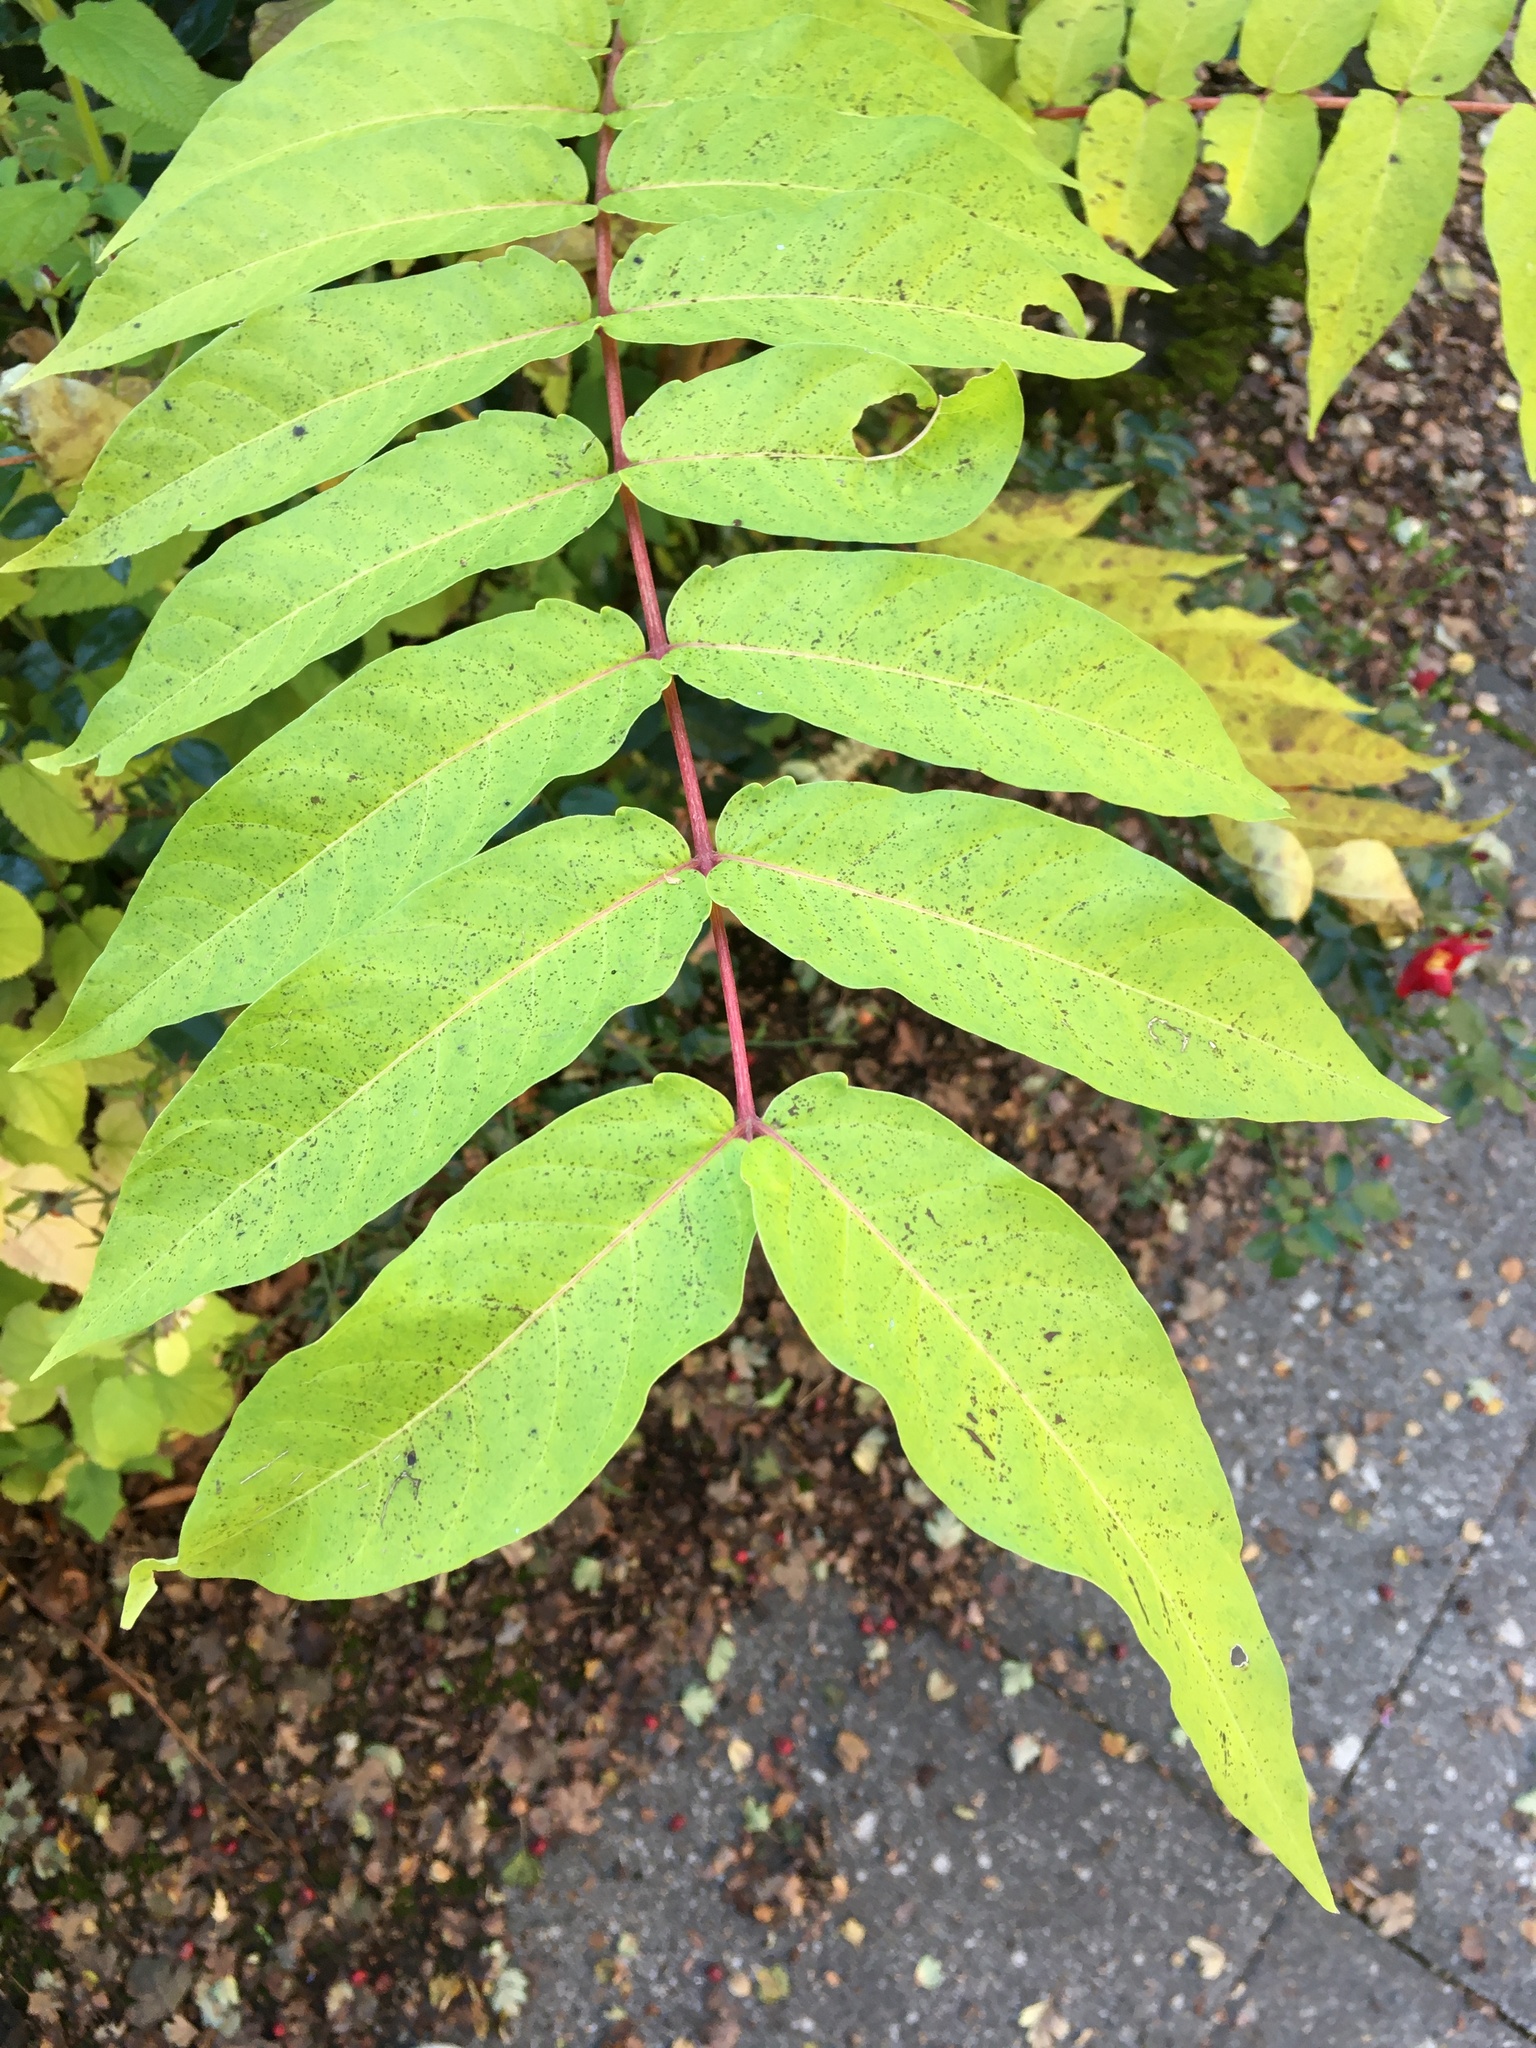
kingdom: Plantae
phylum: Tracheophyta
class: Magnoliopsida
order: Sapindales
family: Simaroubaceae
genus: Ailanthus
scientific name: Ailanthus altissima
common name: Tree-of-heaven
